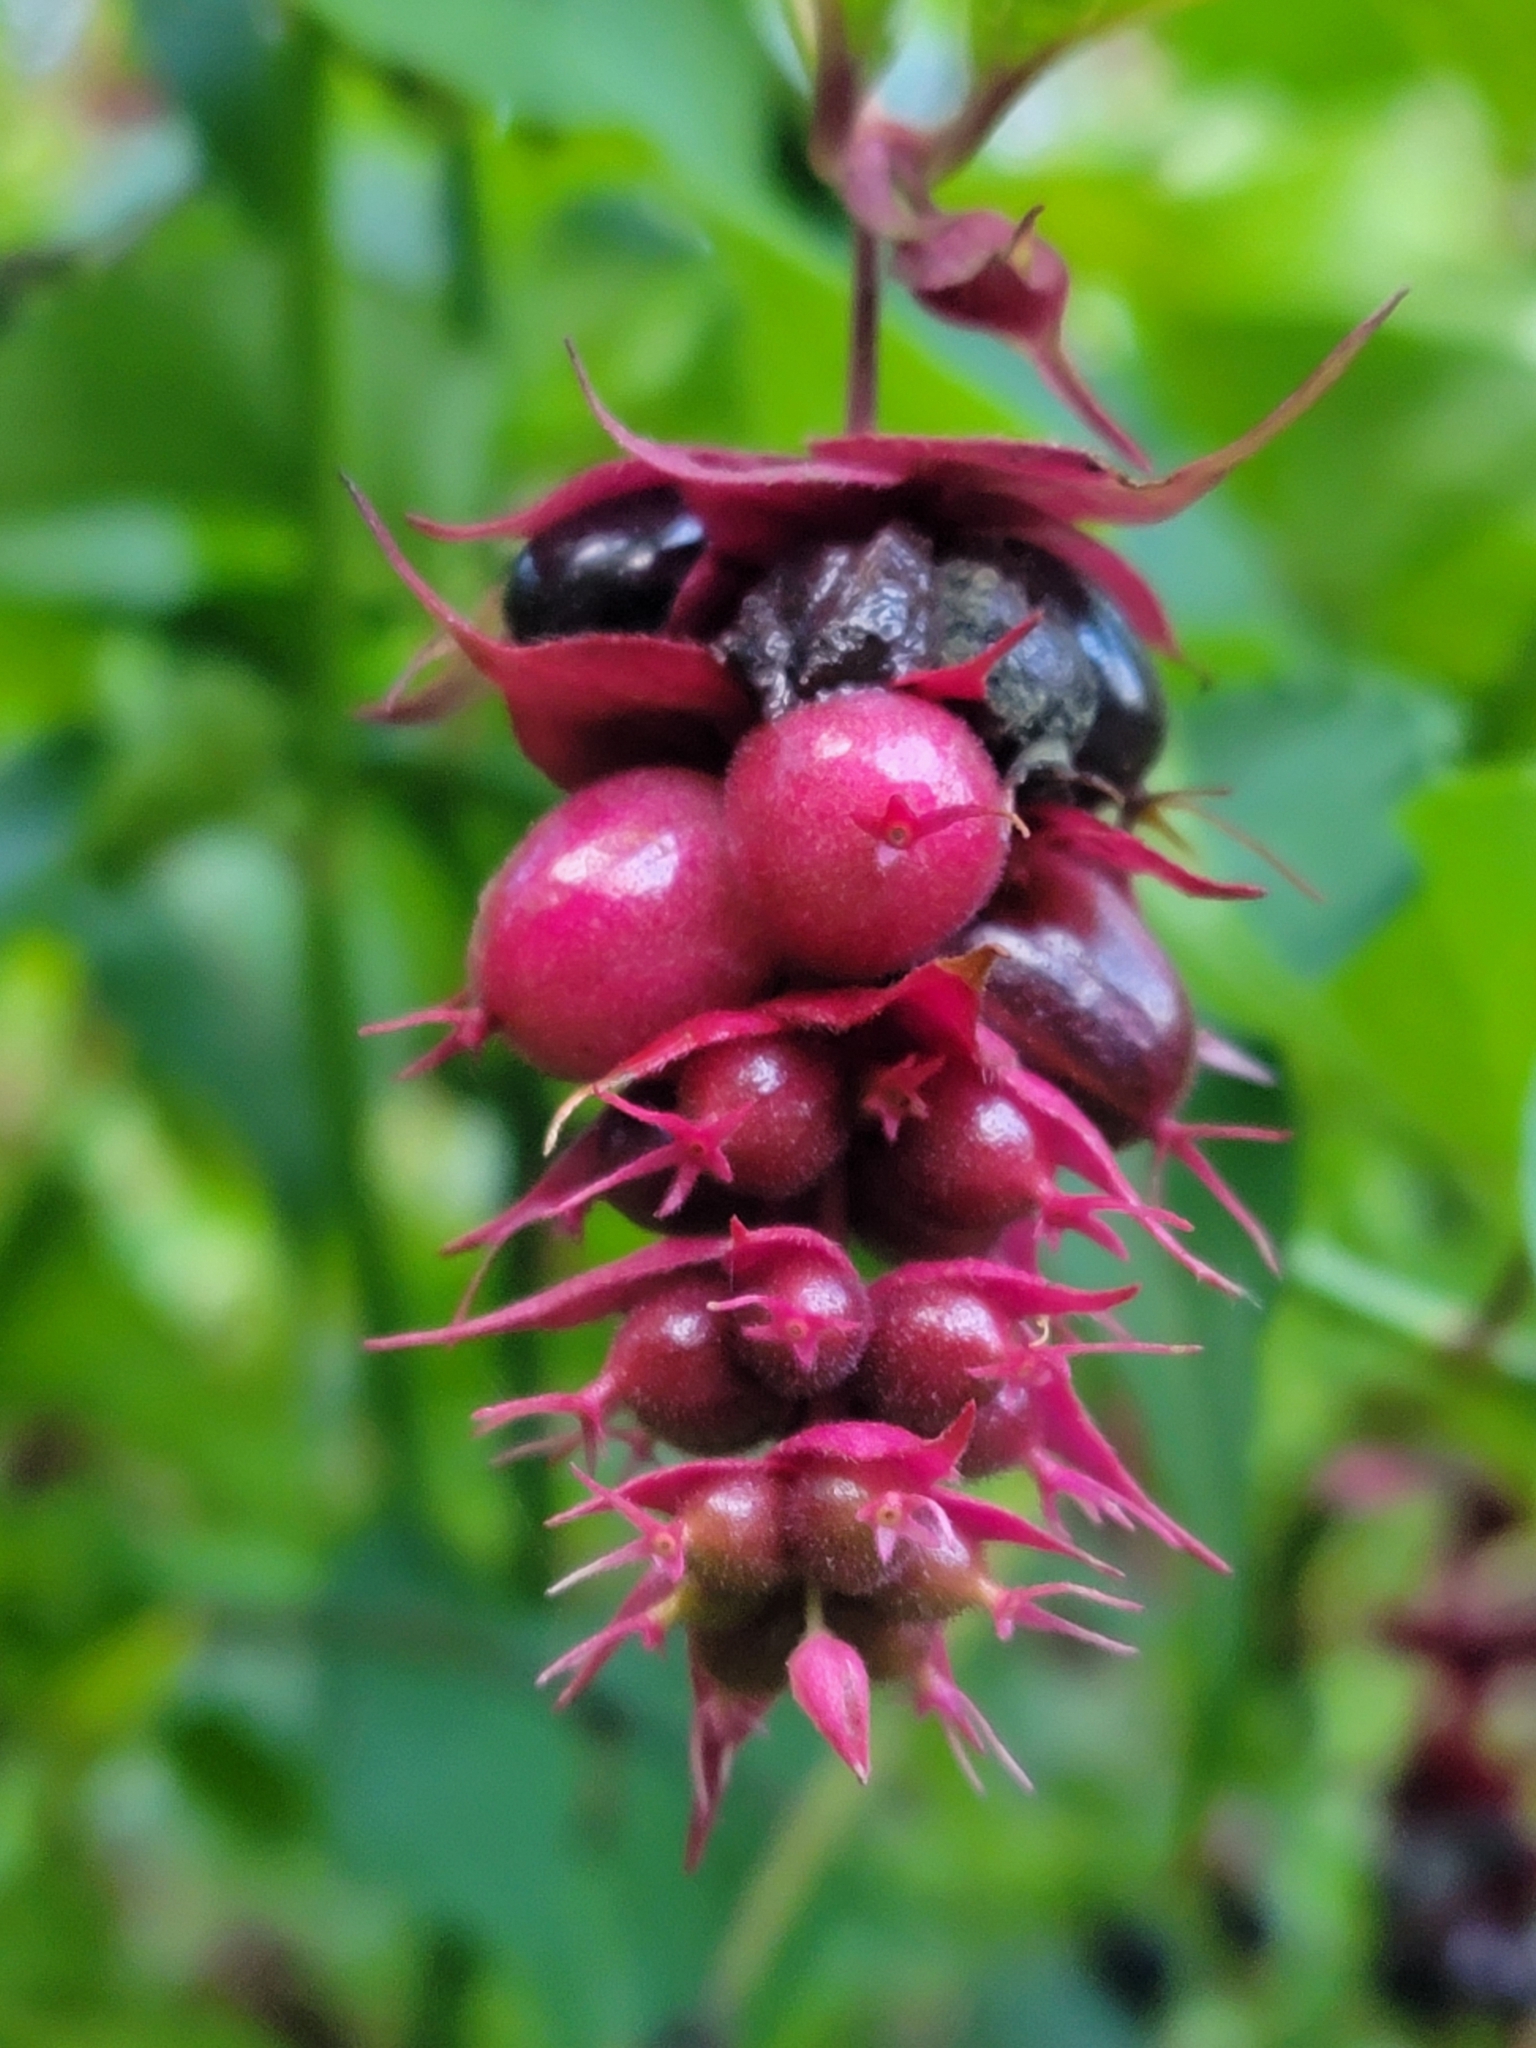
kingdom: Plantae
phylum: Tracheophyta
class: Magnoliopsida
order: Dipsacales
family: Caprifoliaceae
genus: Leycesteria
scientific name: Leycesteria formosa
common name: Himalayan honeysuckle
